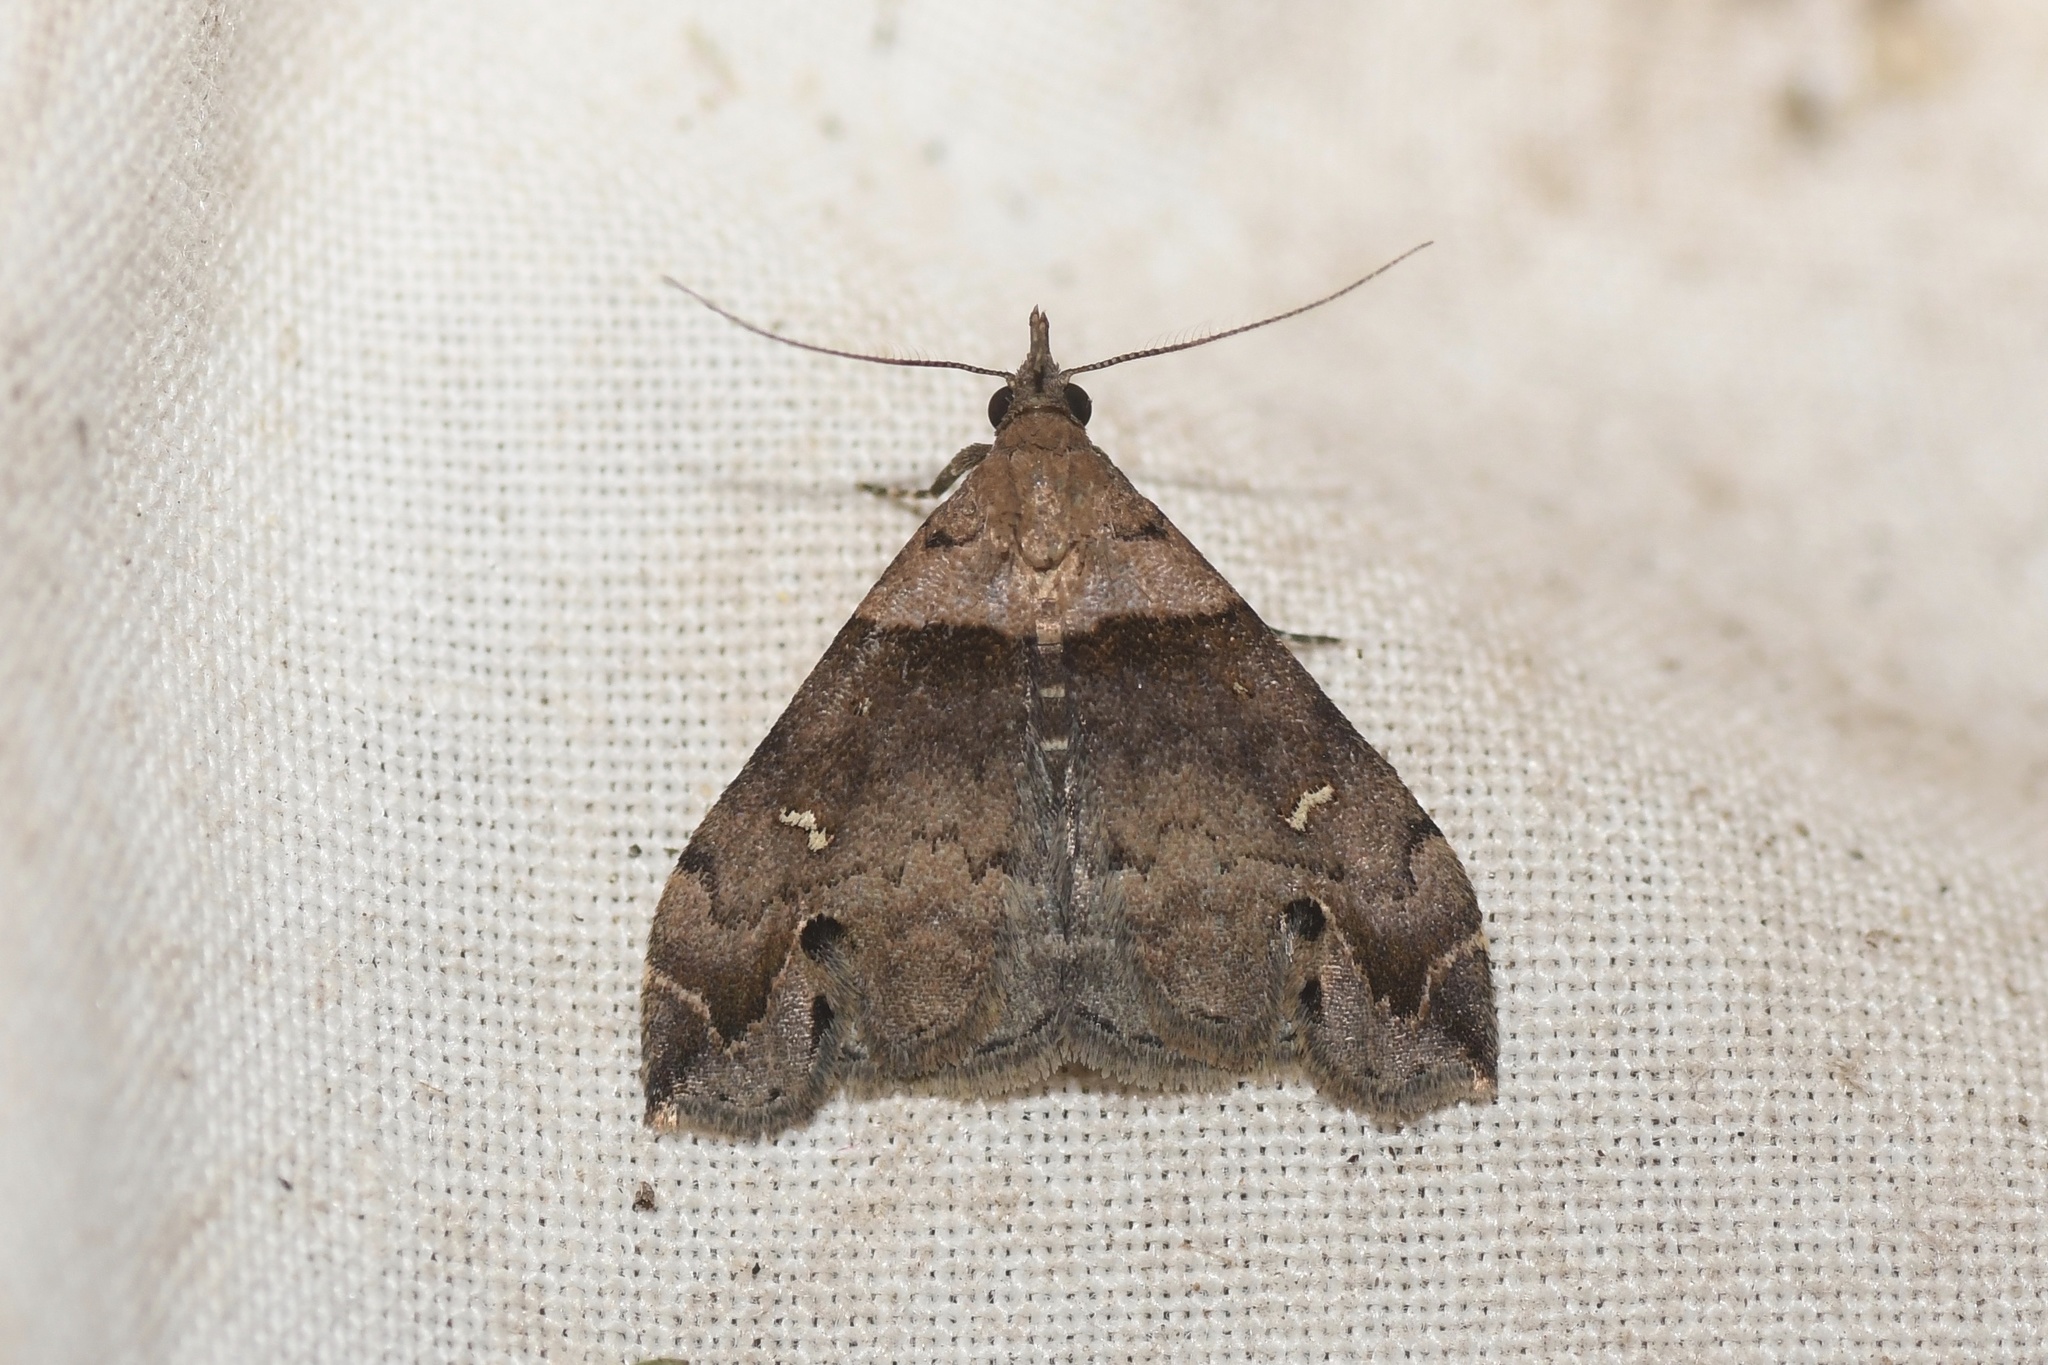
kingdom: Animalia
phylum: Arthropoda
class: Insecta
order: Lepidoptera
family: Erebidae
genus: Lascoria
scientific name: Lascoria ambigualis
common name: Ambiguous moth
